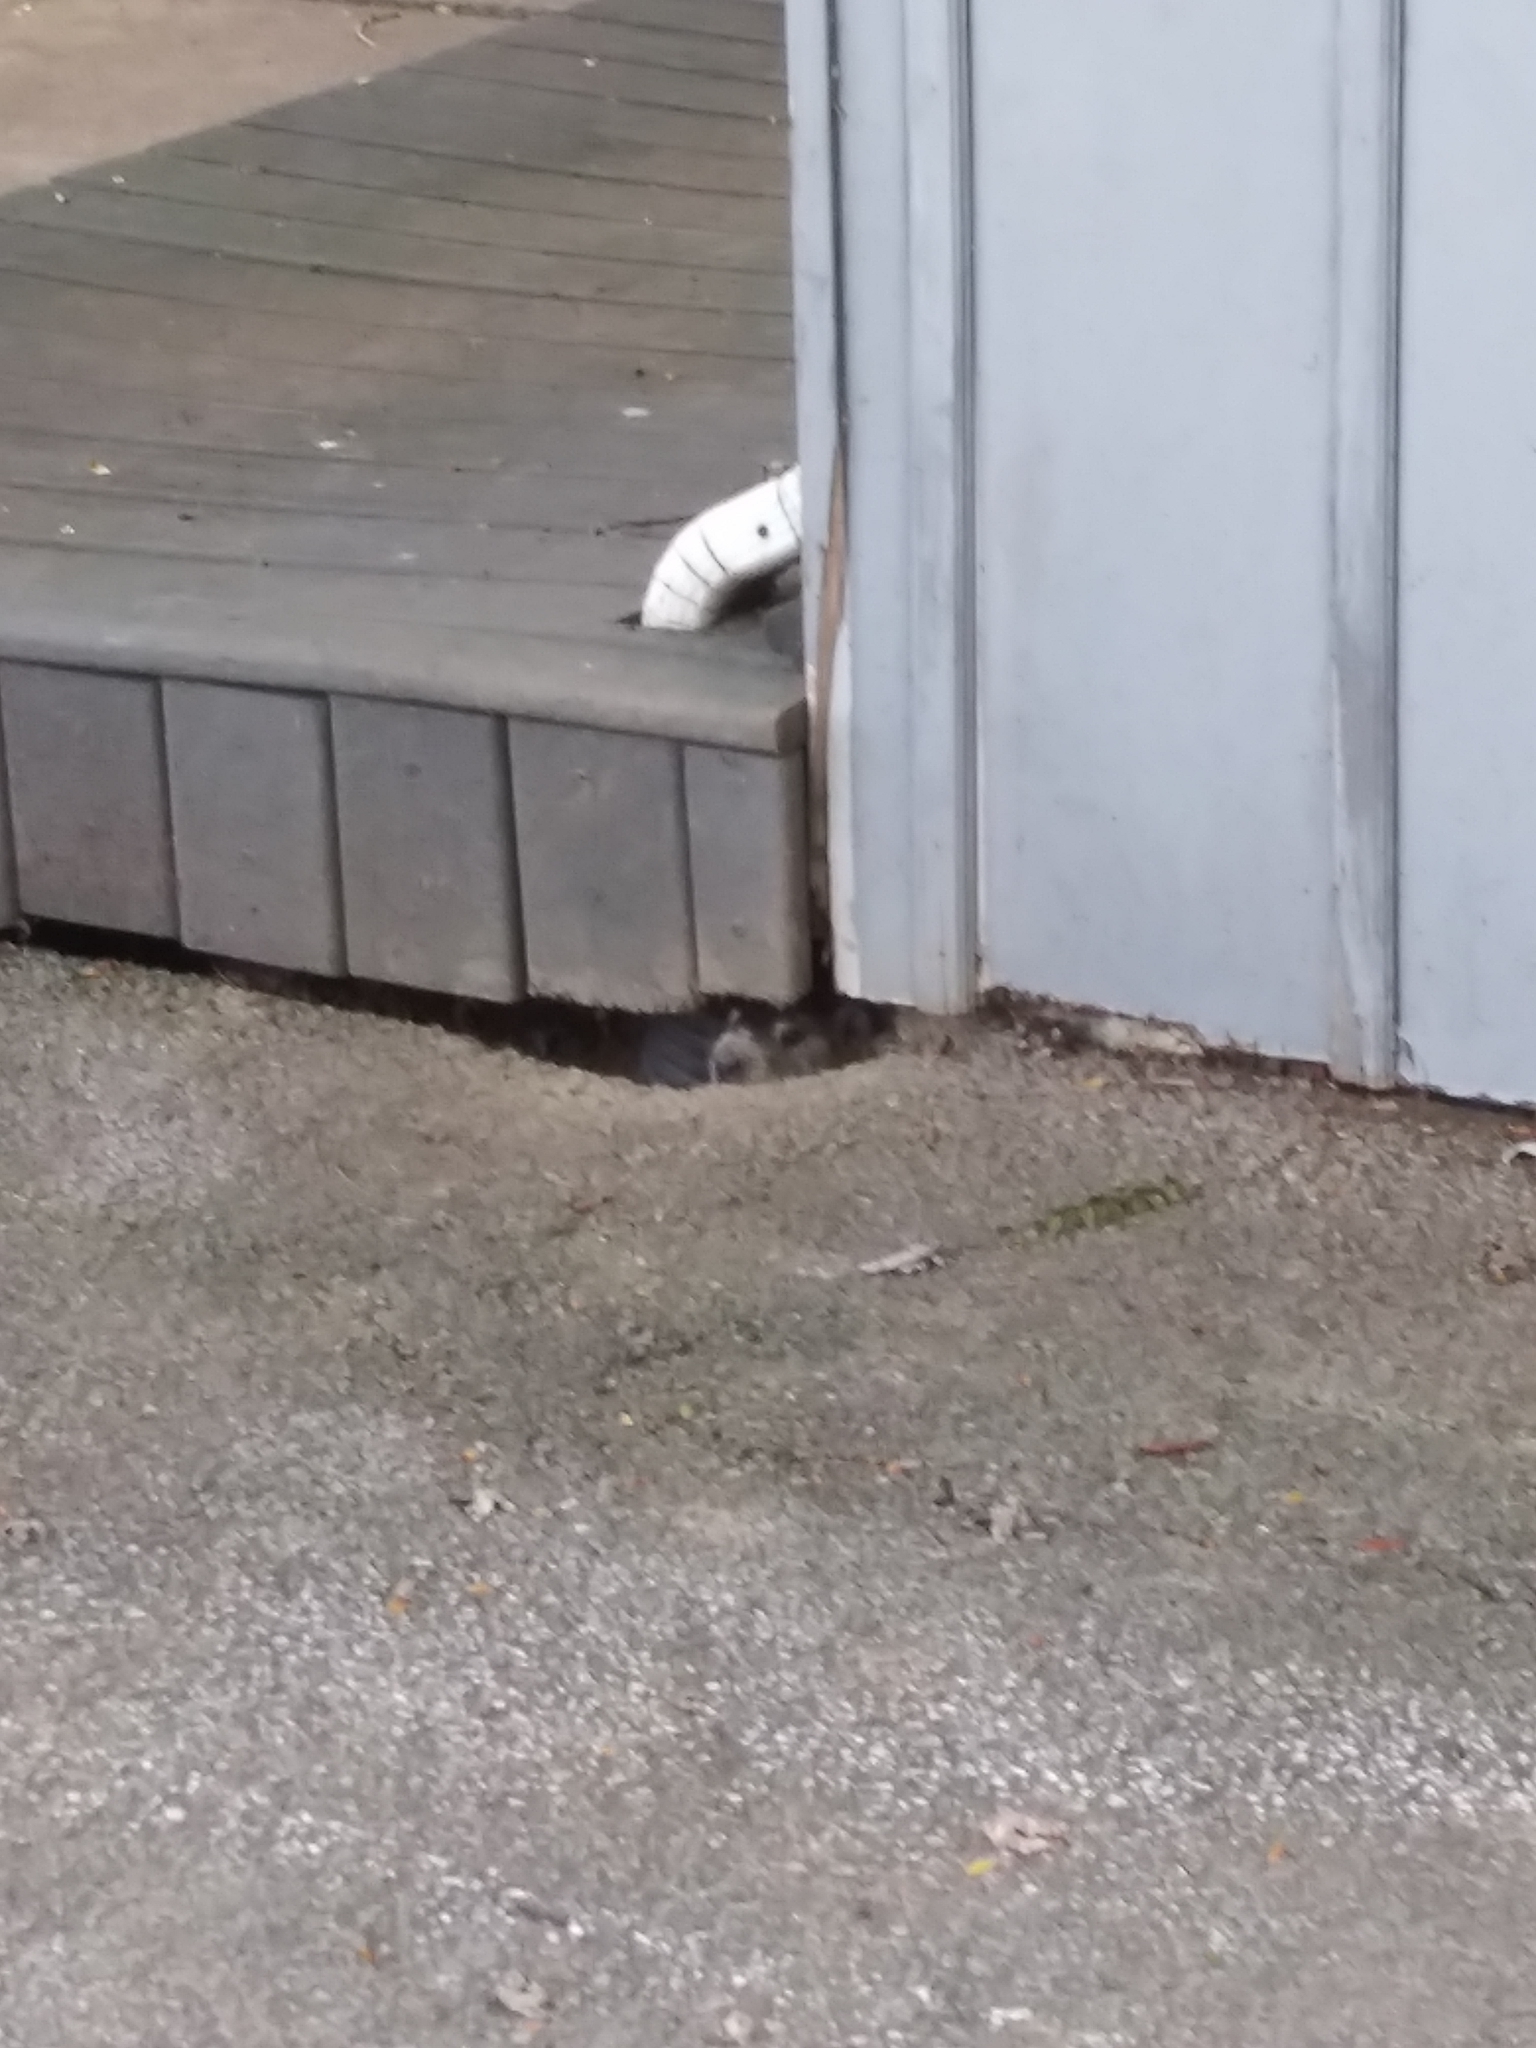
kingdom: Animalia
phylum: Chordata
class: Mammalia
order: Rodentia
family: Sciuridae
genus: Marmota
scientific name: Marmota monax
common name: Groundhog
